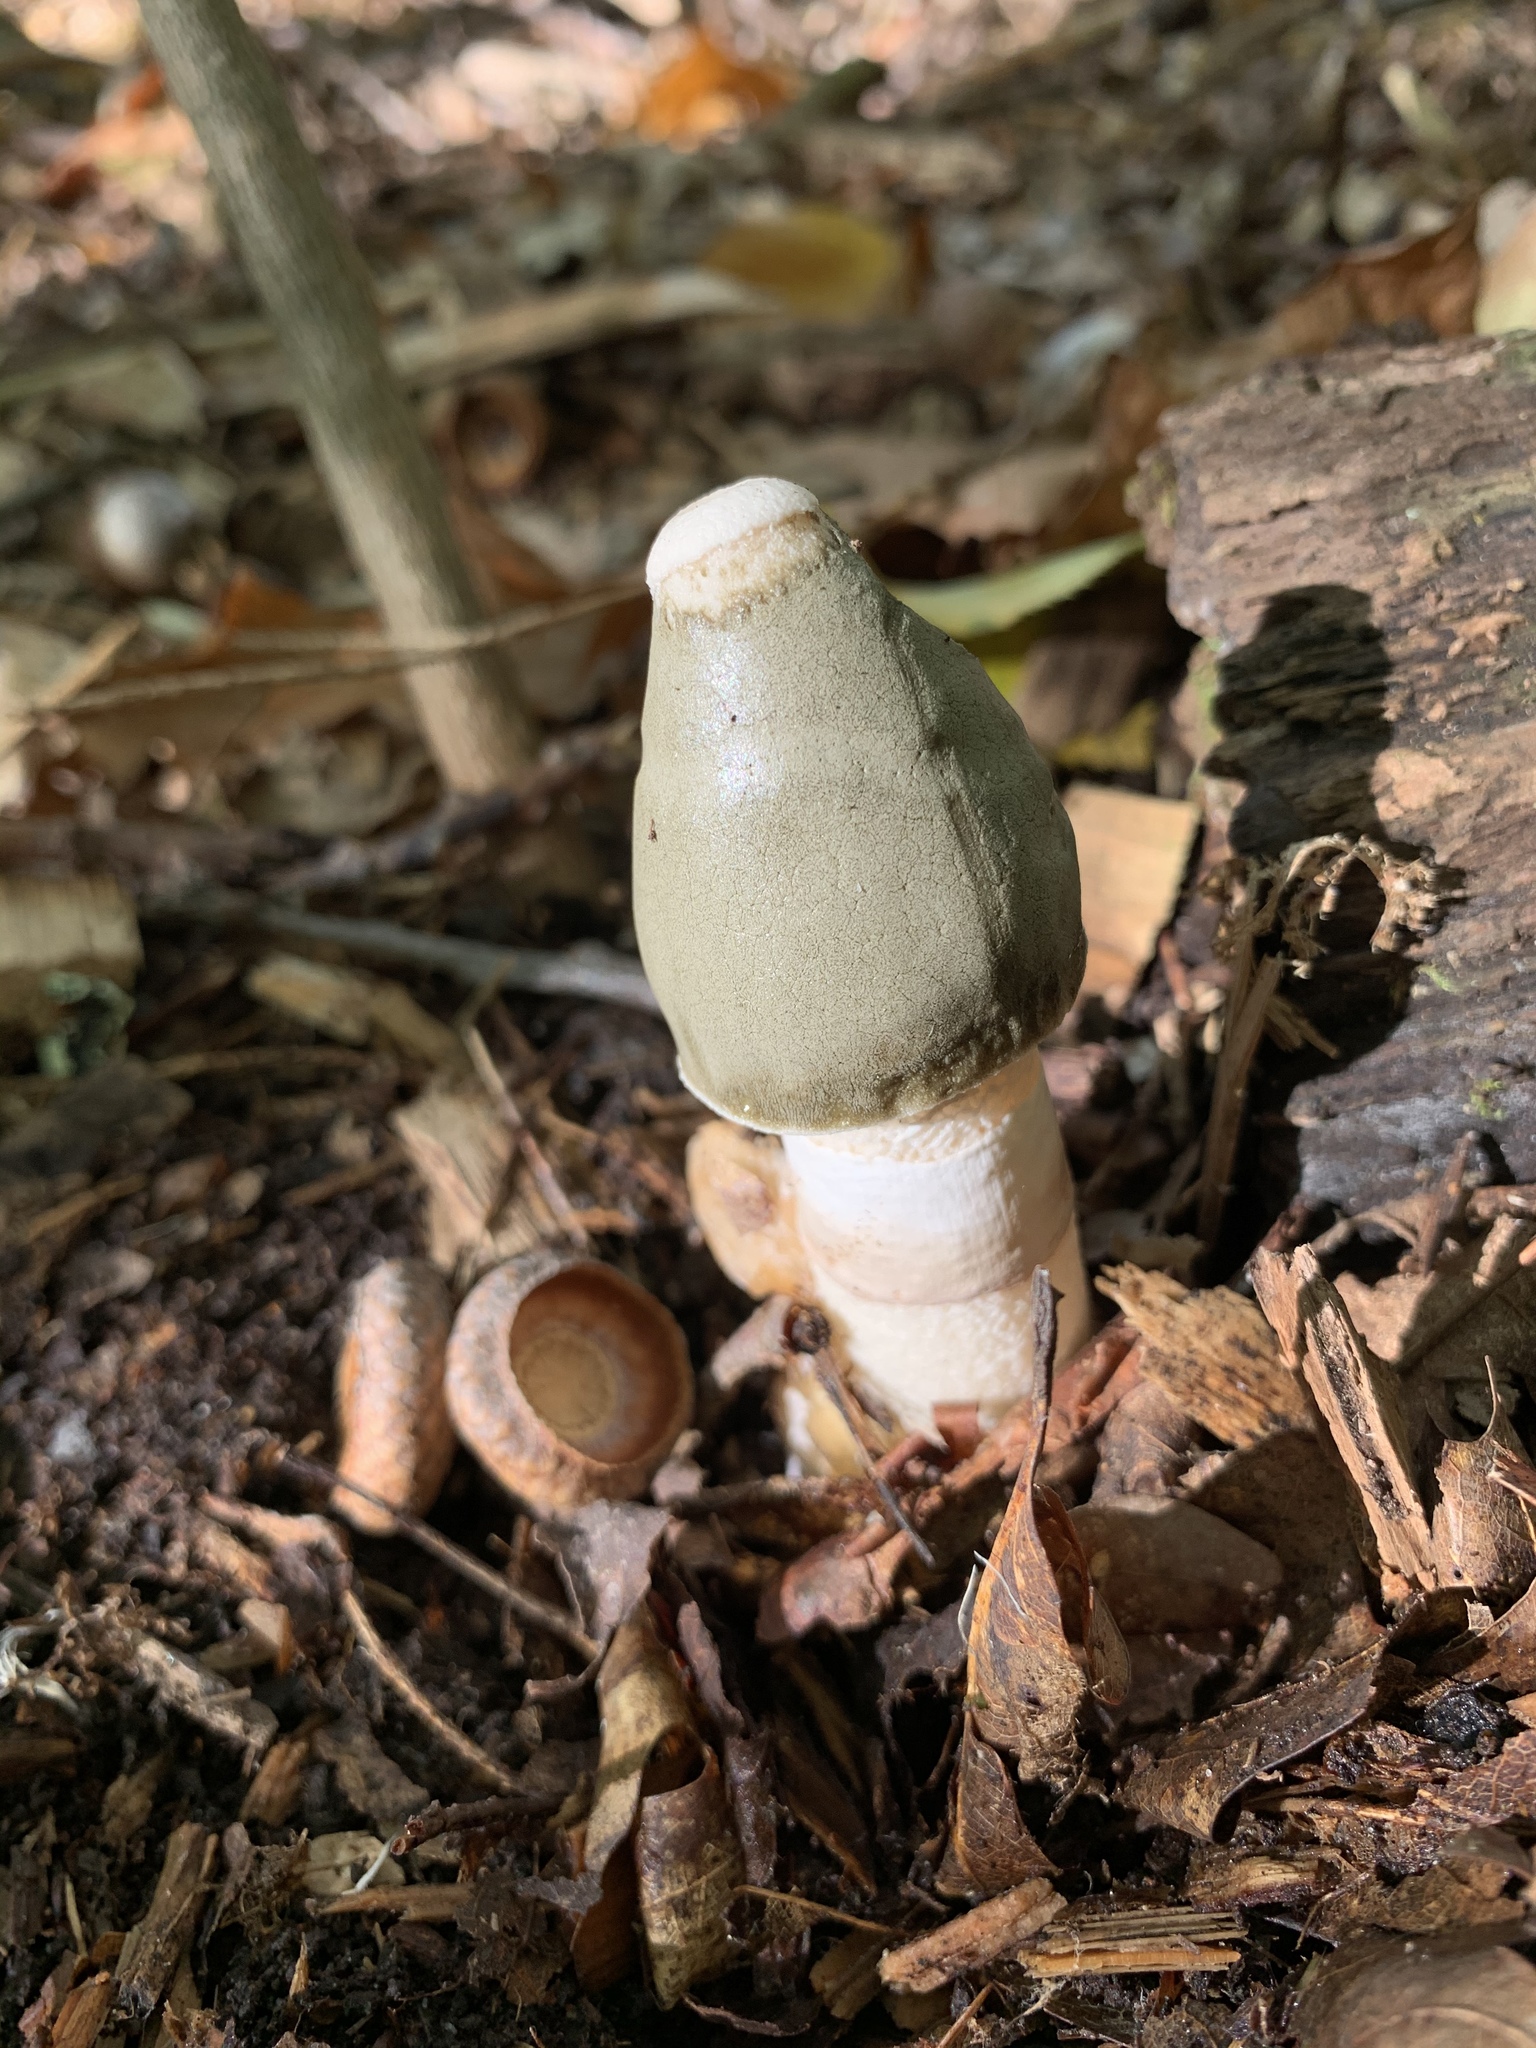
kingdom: Fungi
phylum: Basidiomycota
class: Agaricomycetes
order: Phallales
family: Phallaceae
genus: Phallus
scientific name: Phallus ravenelii
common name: Ravenel's stinkhorn
